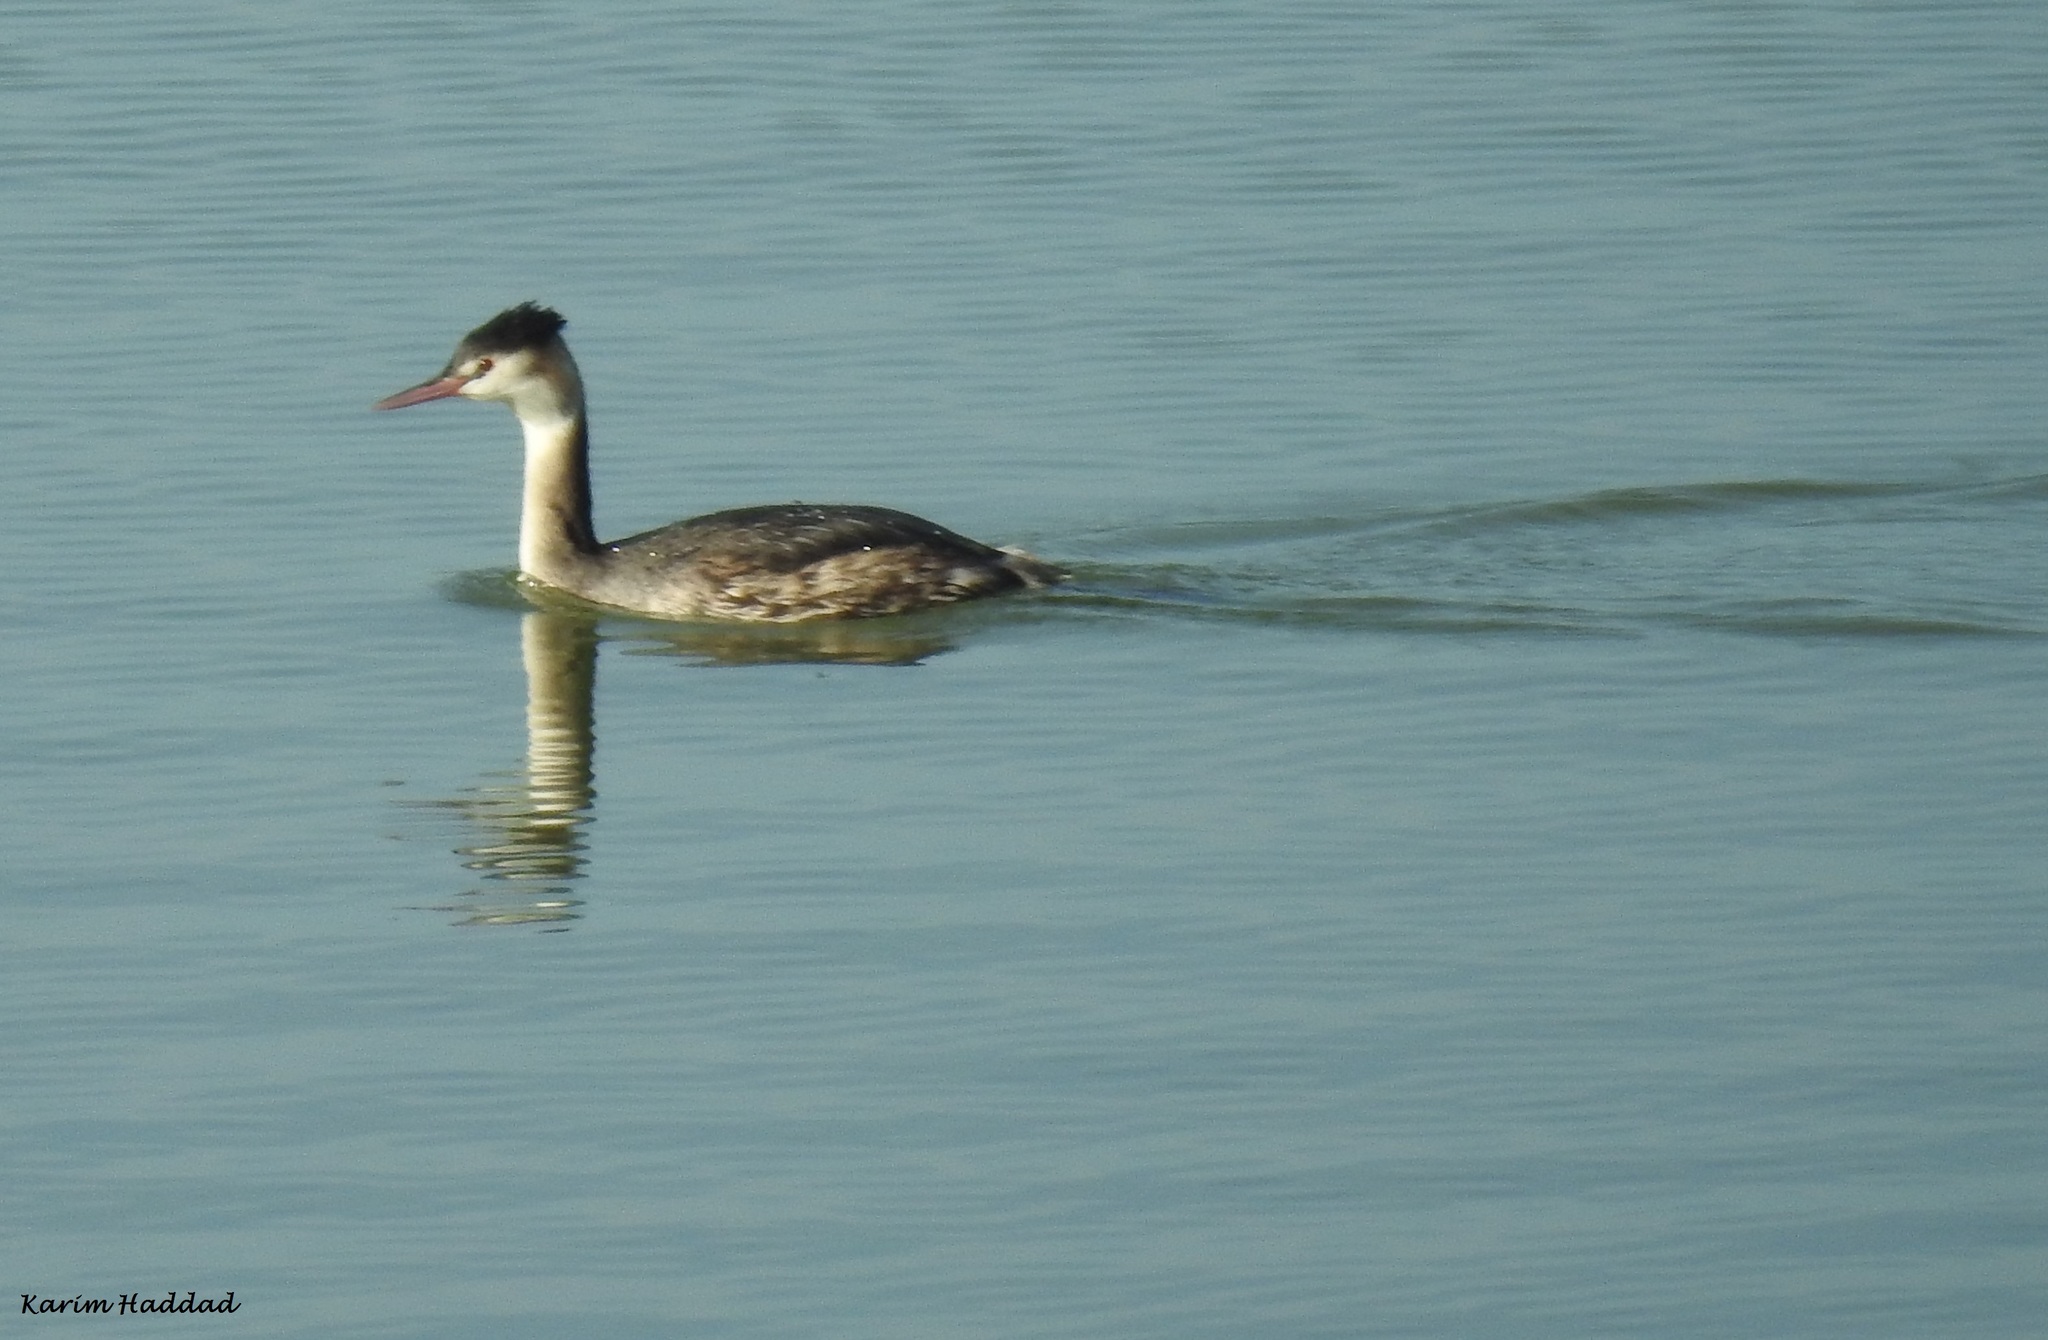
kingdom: Animalia
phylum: Chordata
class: Aves
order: Podicipediformes
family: Podicipedidae
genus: Podiceps
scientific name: Podiceps cristatus
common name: Great crested grebe
